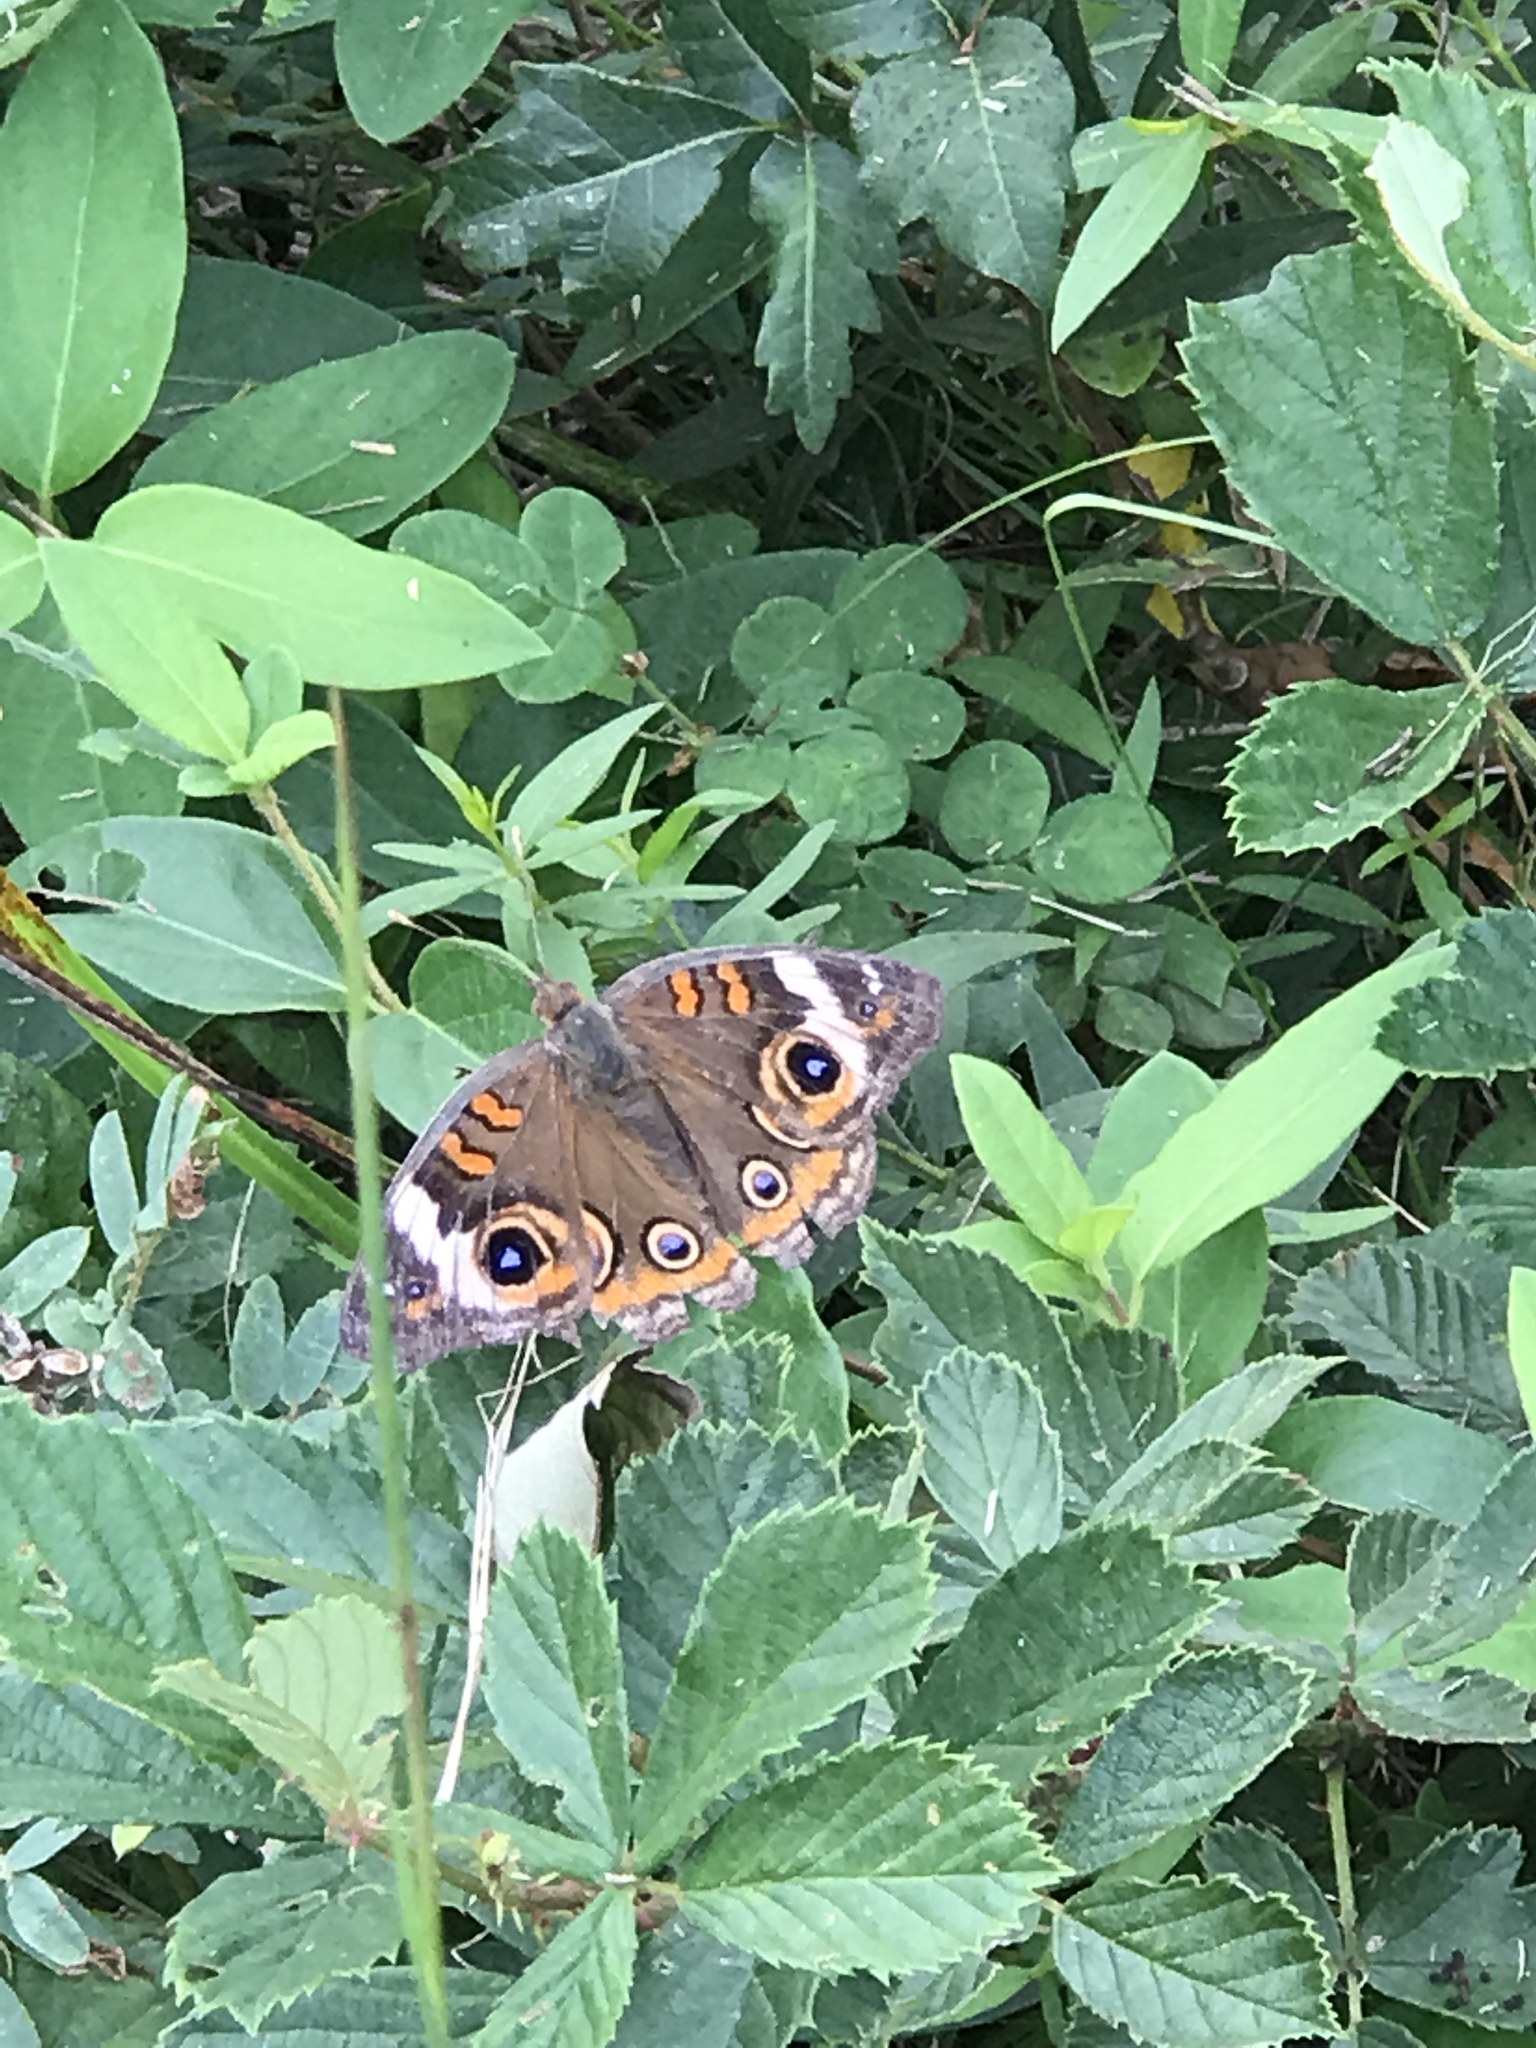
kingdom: Animalia
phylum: Arthropoda
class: Insecta
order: Lepidoptera
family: Nymphalidae
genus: Junonia
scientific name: Junonia coenia
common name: Common buckeye
